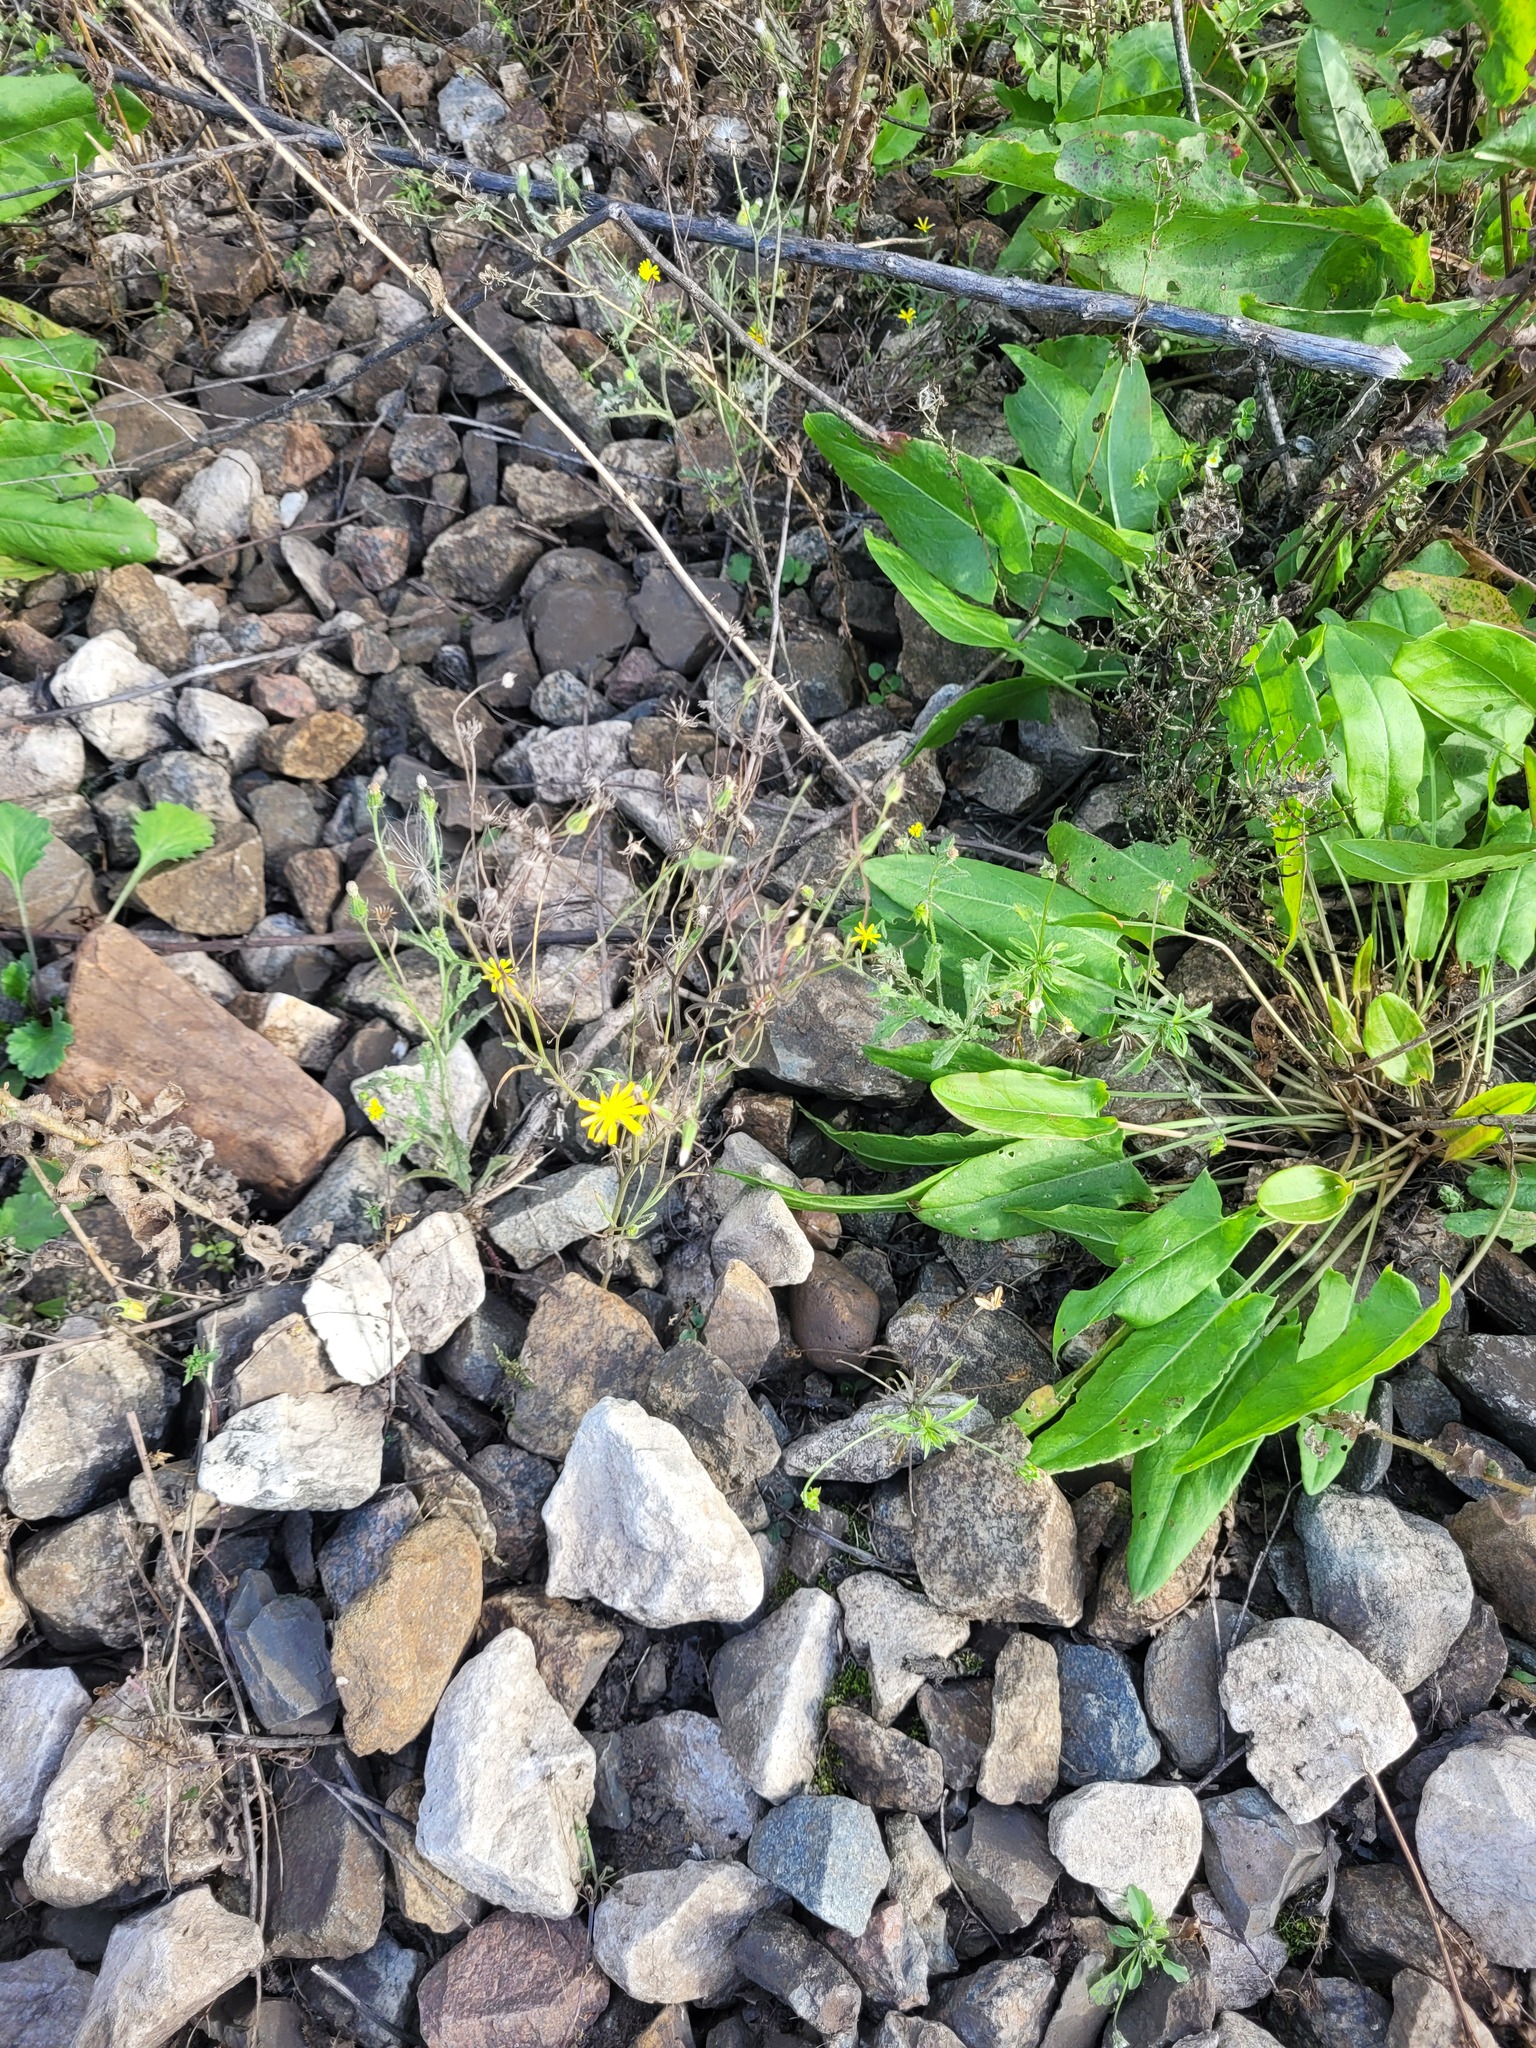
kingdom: Plantae
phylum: Tracheophyta
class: Magnoliopsida
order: Asterales
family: Asteraceae
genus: Crepis
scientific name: Crepis tectorum
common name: Narrow-leaved hawk's-beard
